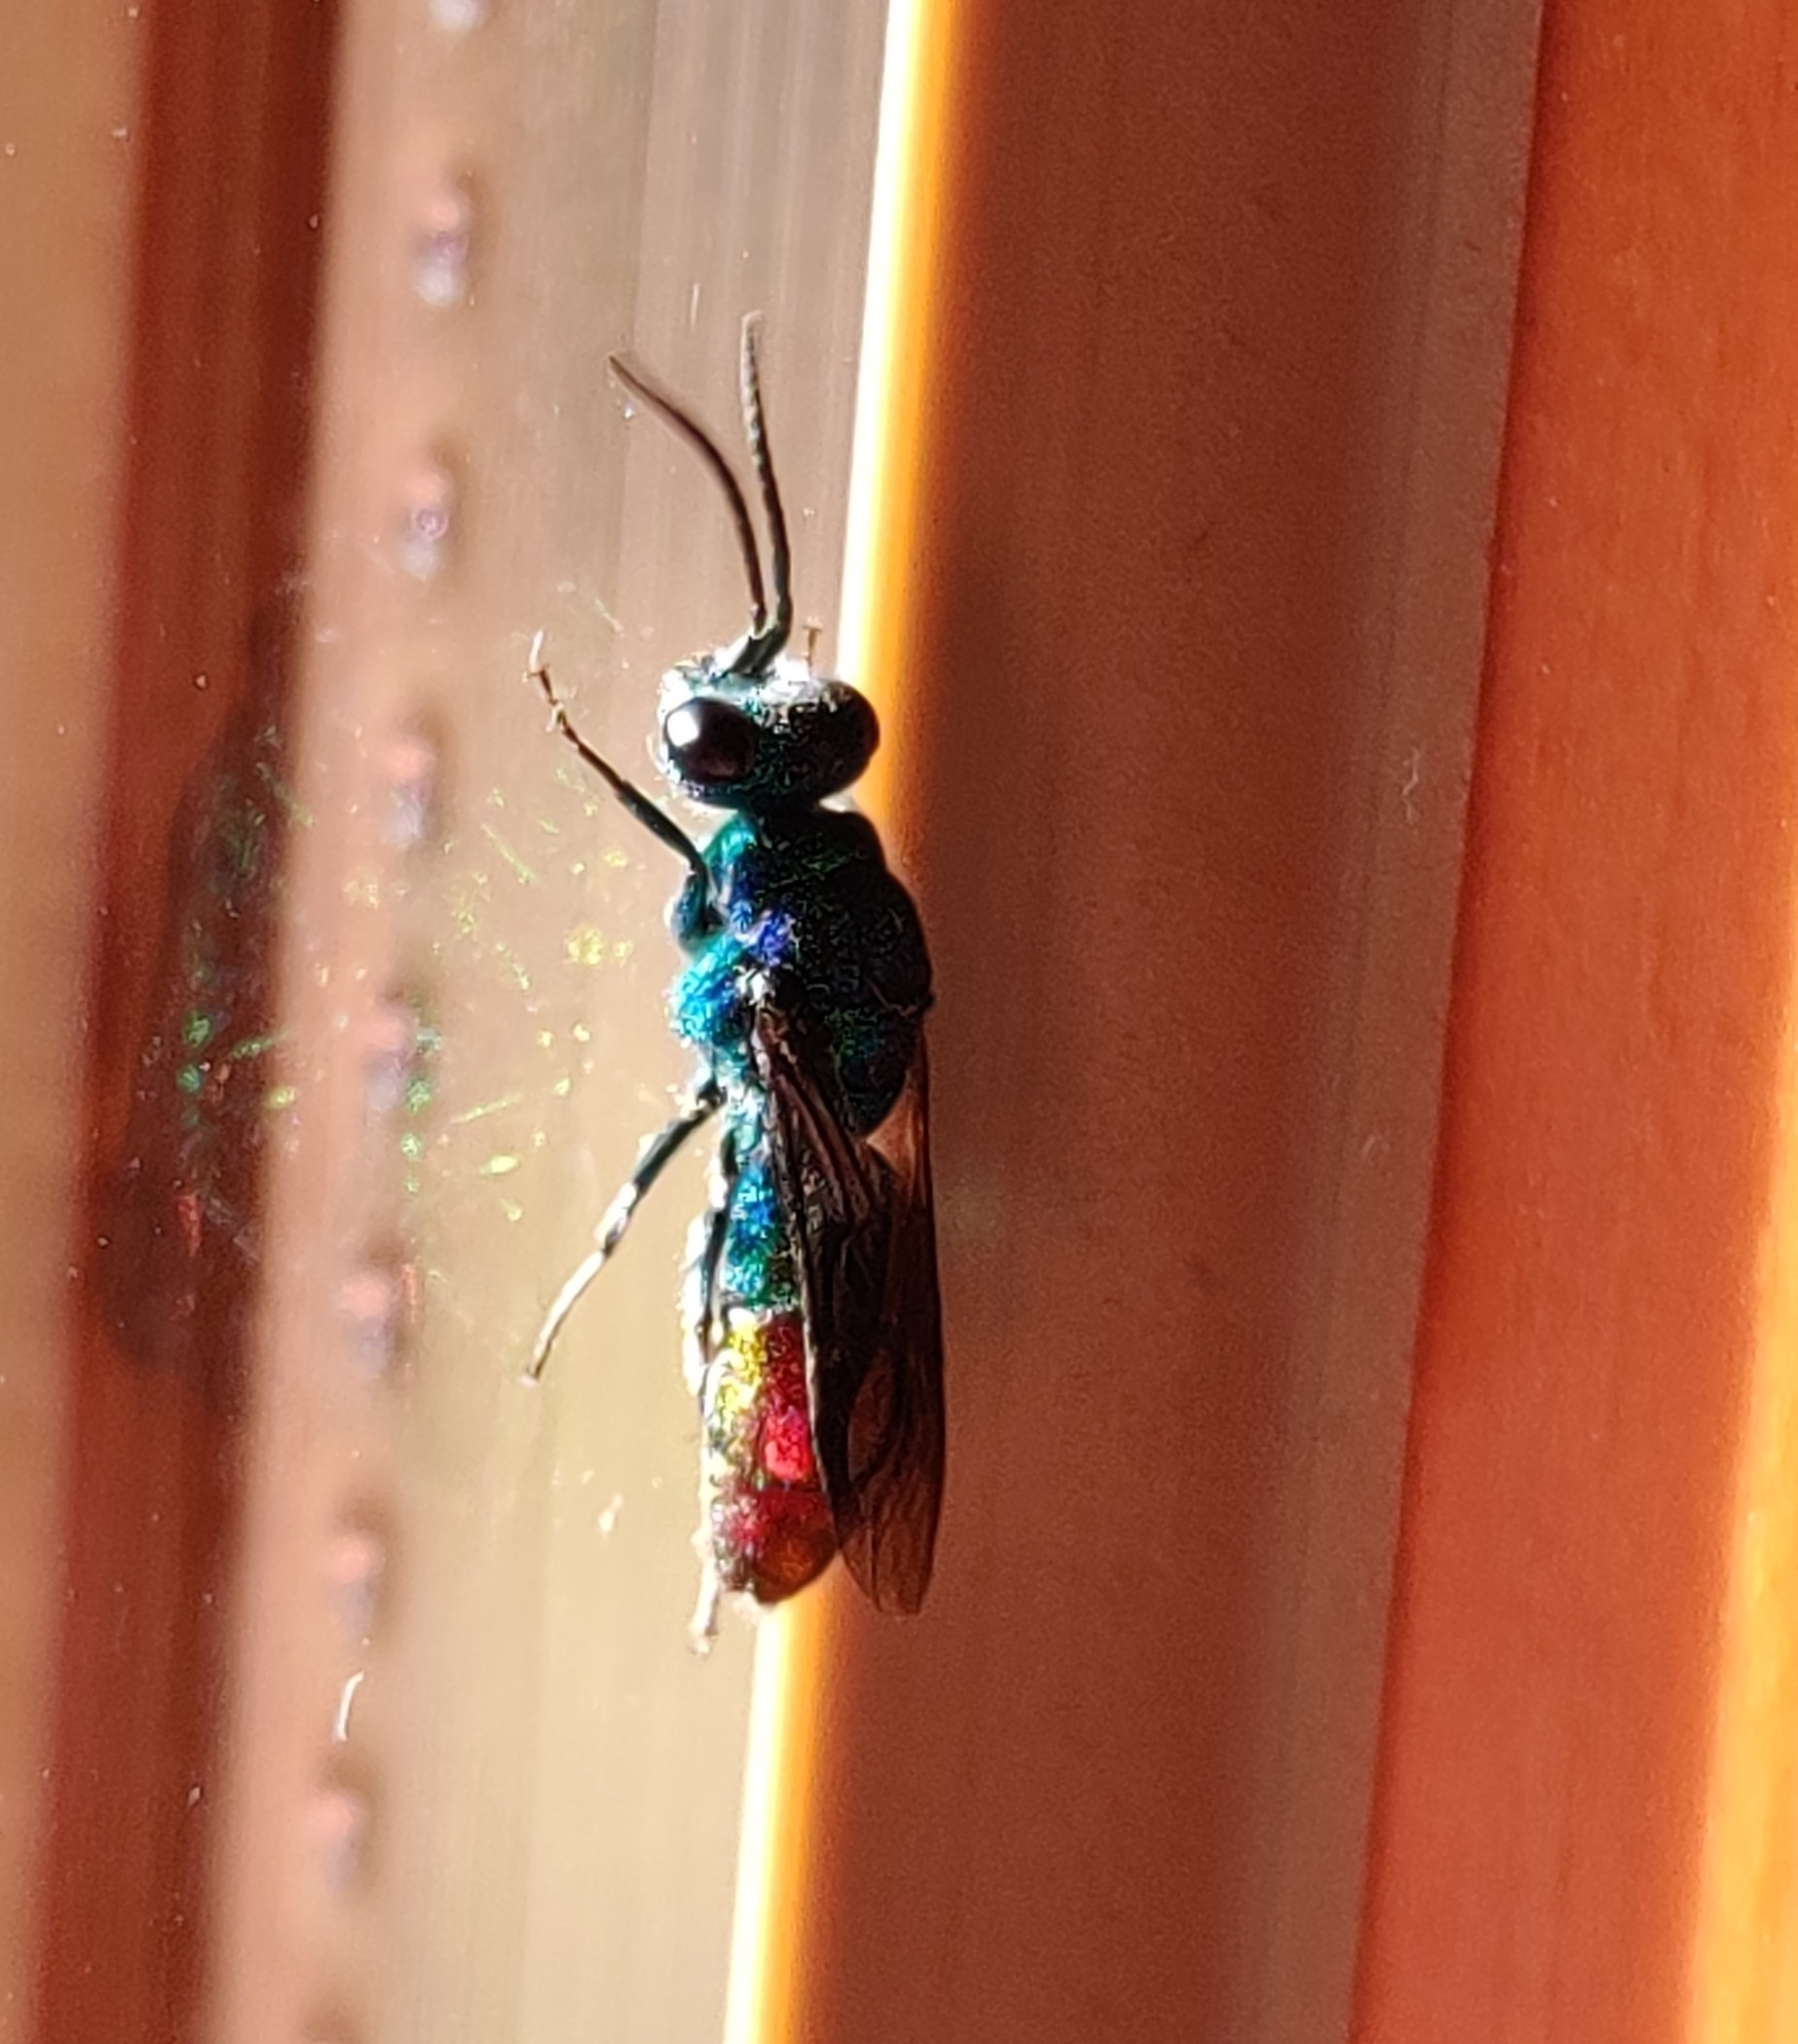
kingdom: Animalia
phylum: Arthropoda
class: Insecta
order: Hymenoptera
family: Chrysididae
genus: Chrysis
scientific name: Chrysis fulgida
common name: Shimmering ruby-tail
